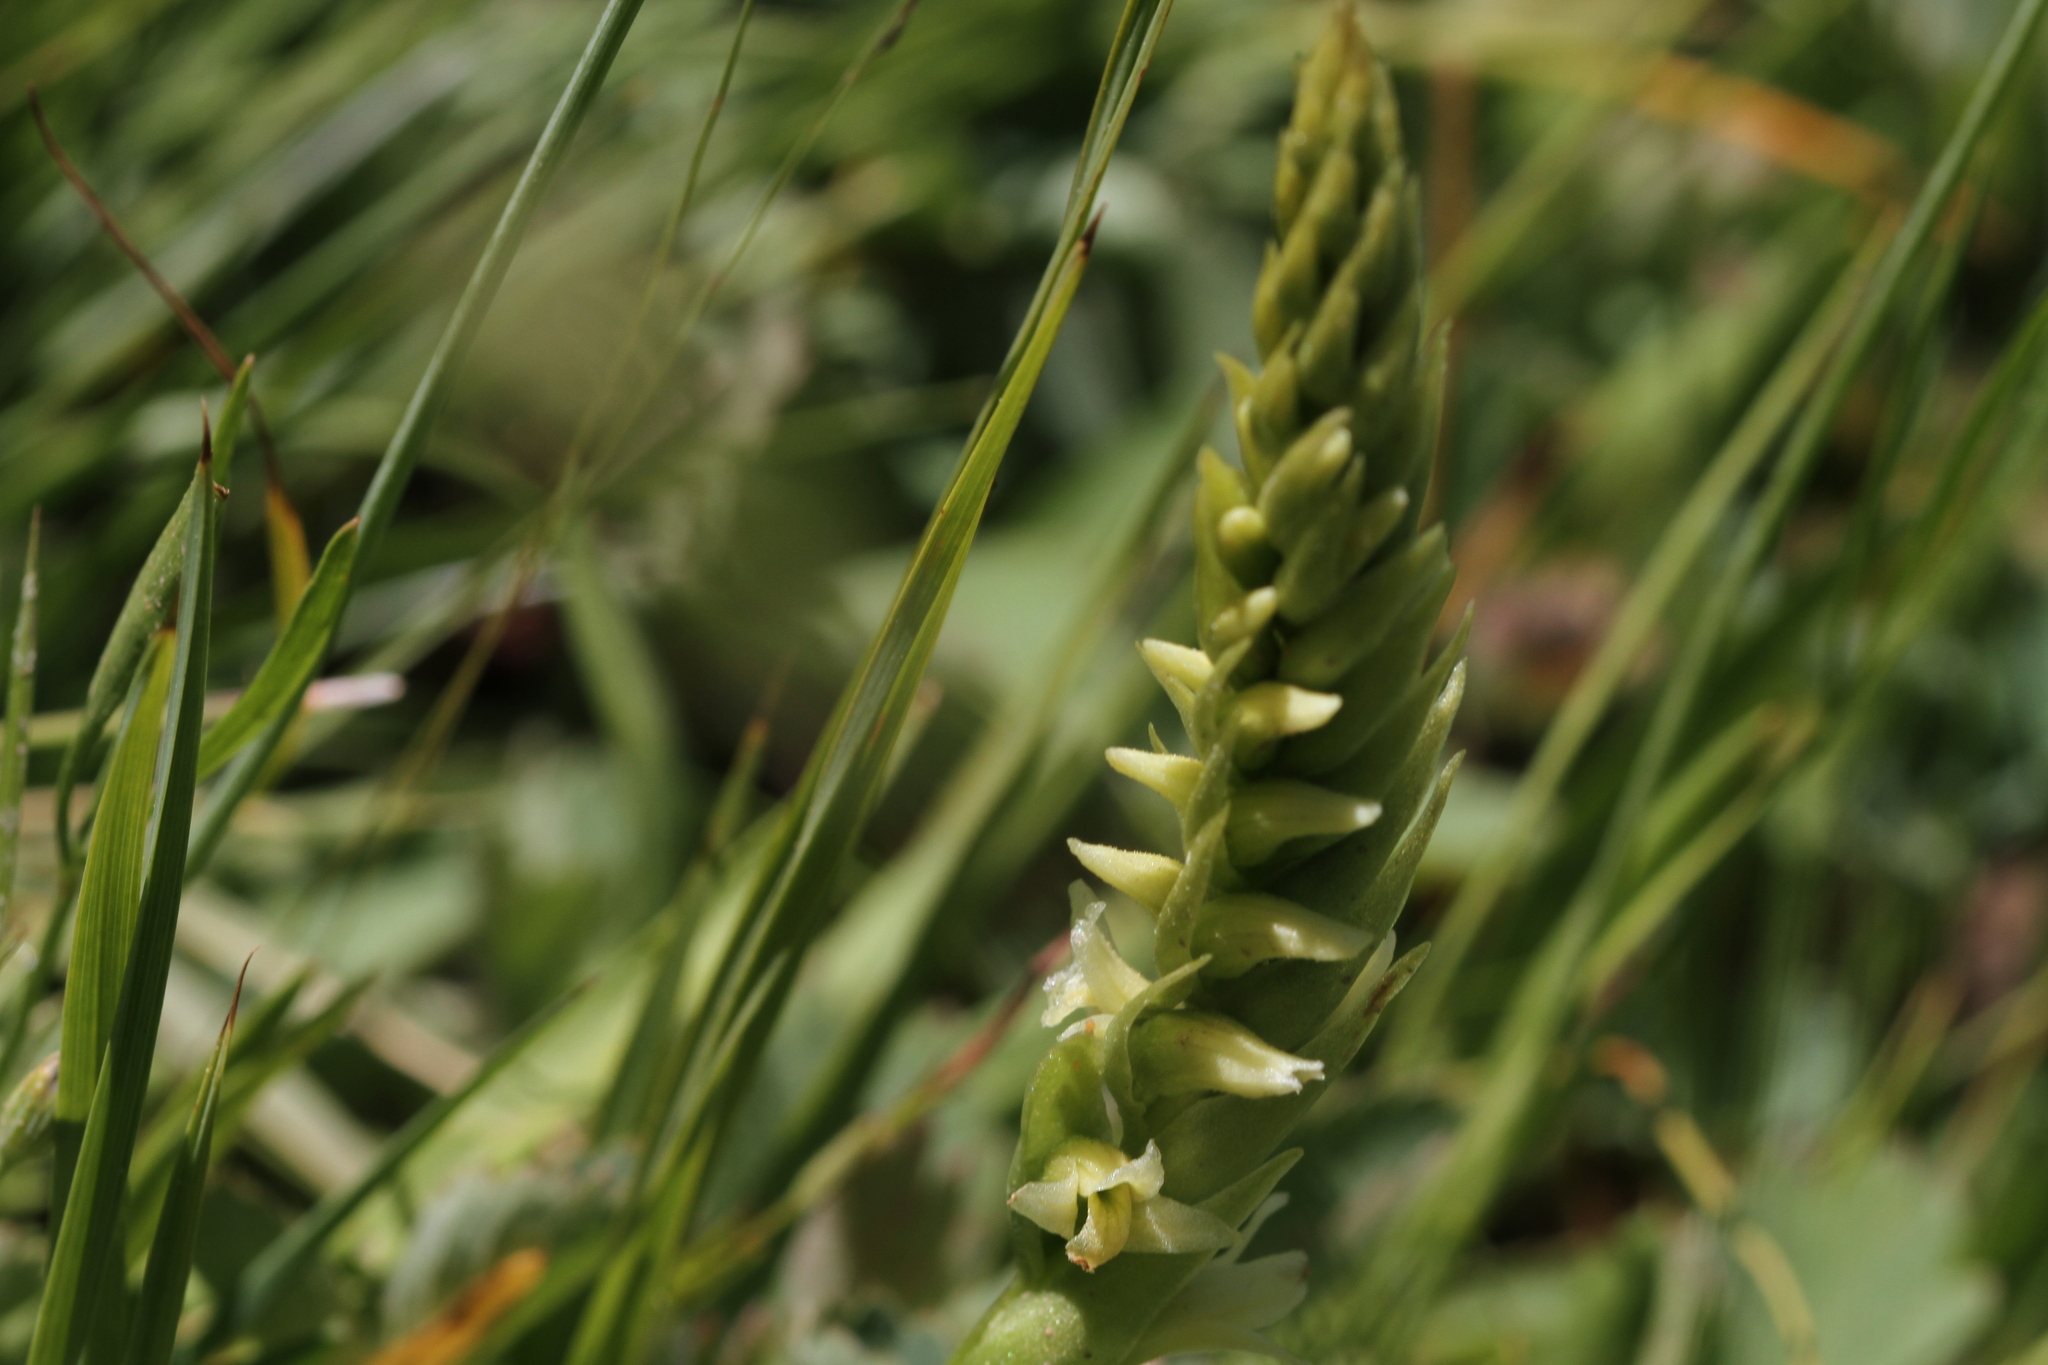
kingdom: Plantae
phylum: Tracheophyta
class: Liliopsida
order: Asparagales
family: Orchidaceae
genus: Spiranthes
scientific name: Spiranthes stellata
